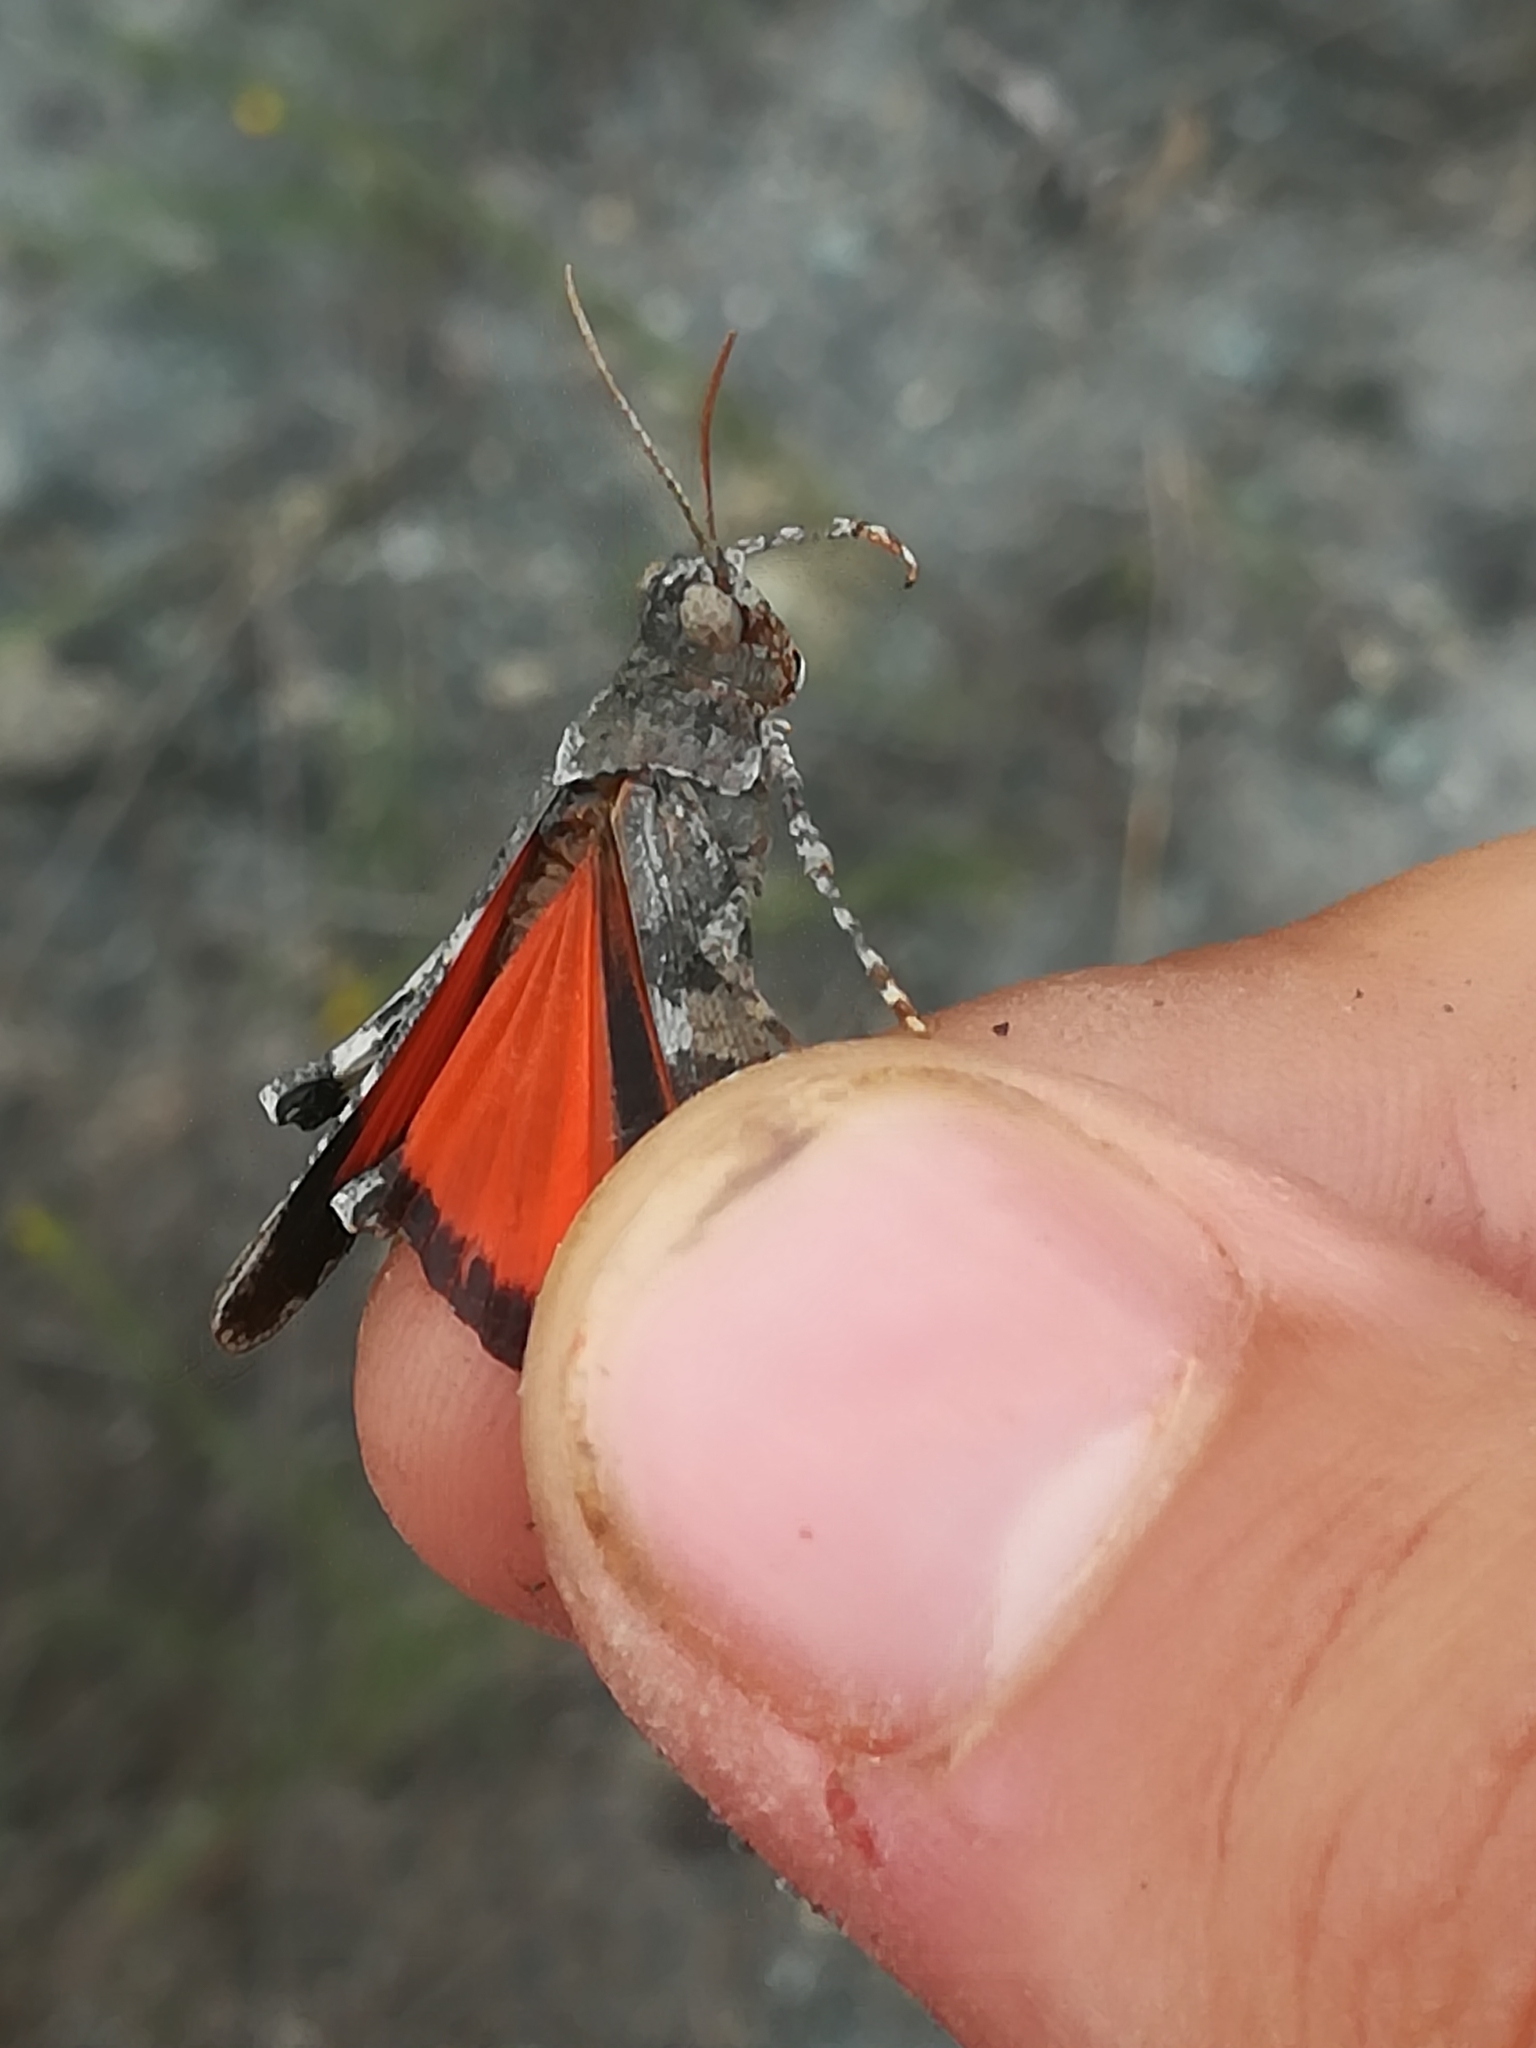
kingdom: Animalia
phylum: Arthropoda
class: Insecta
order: Orthoptera
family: Acrididae
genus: Oedipoda
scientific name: Oedipoda germanica
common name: Red band-winged grasshopper
